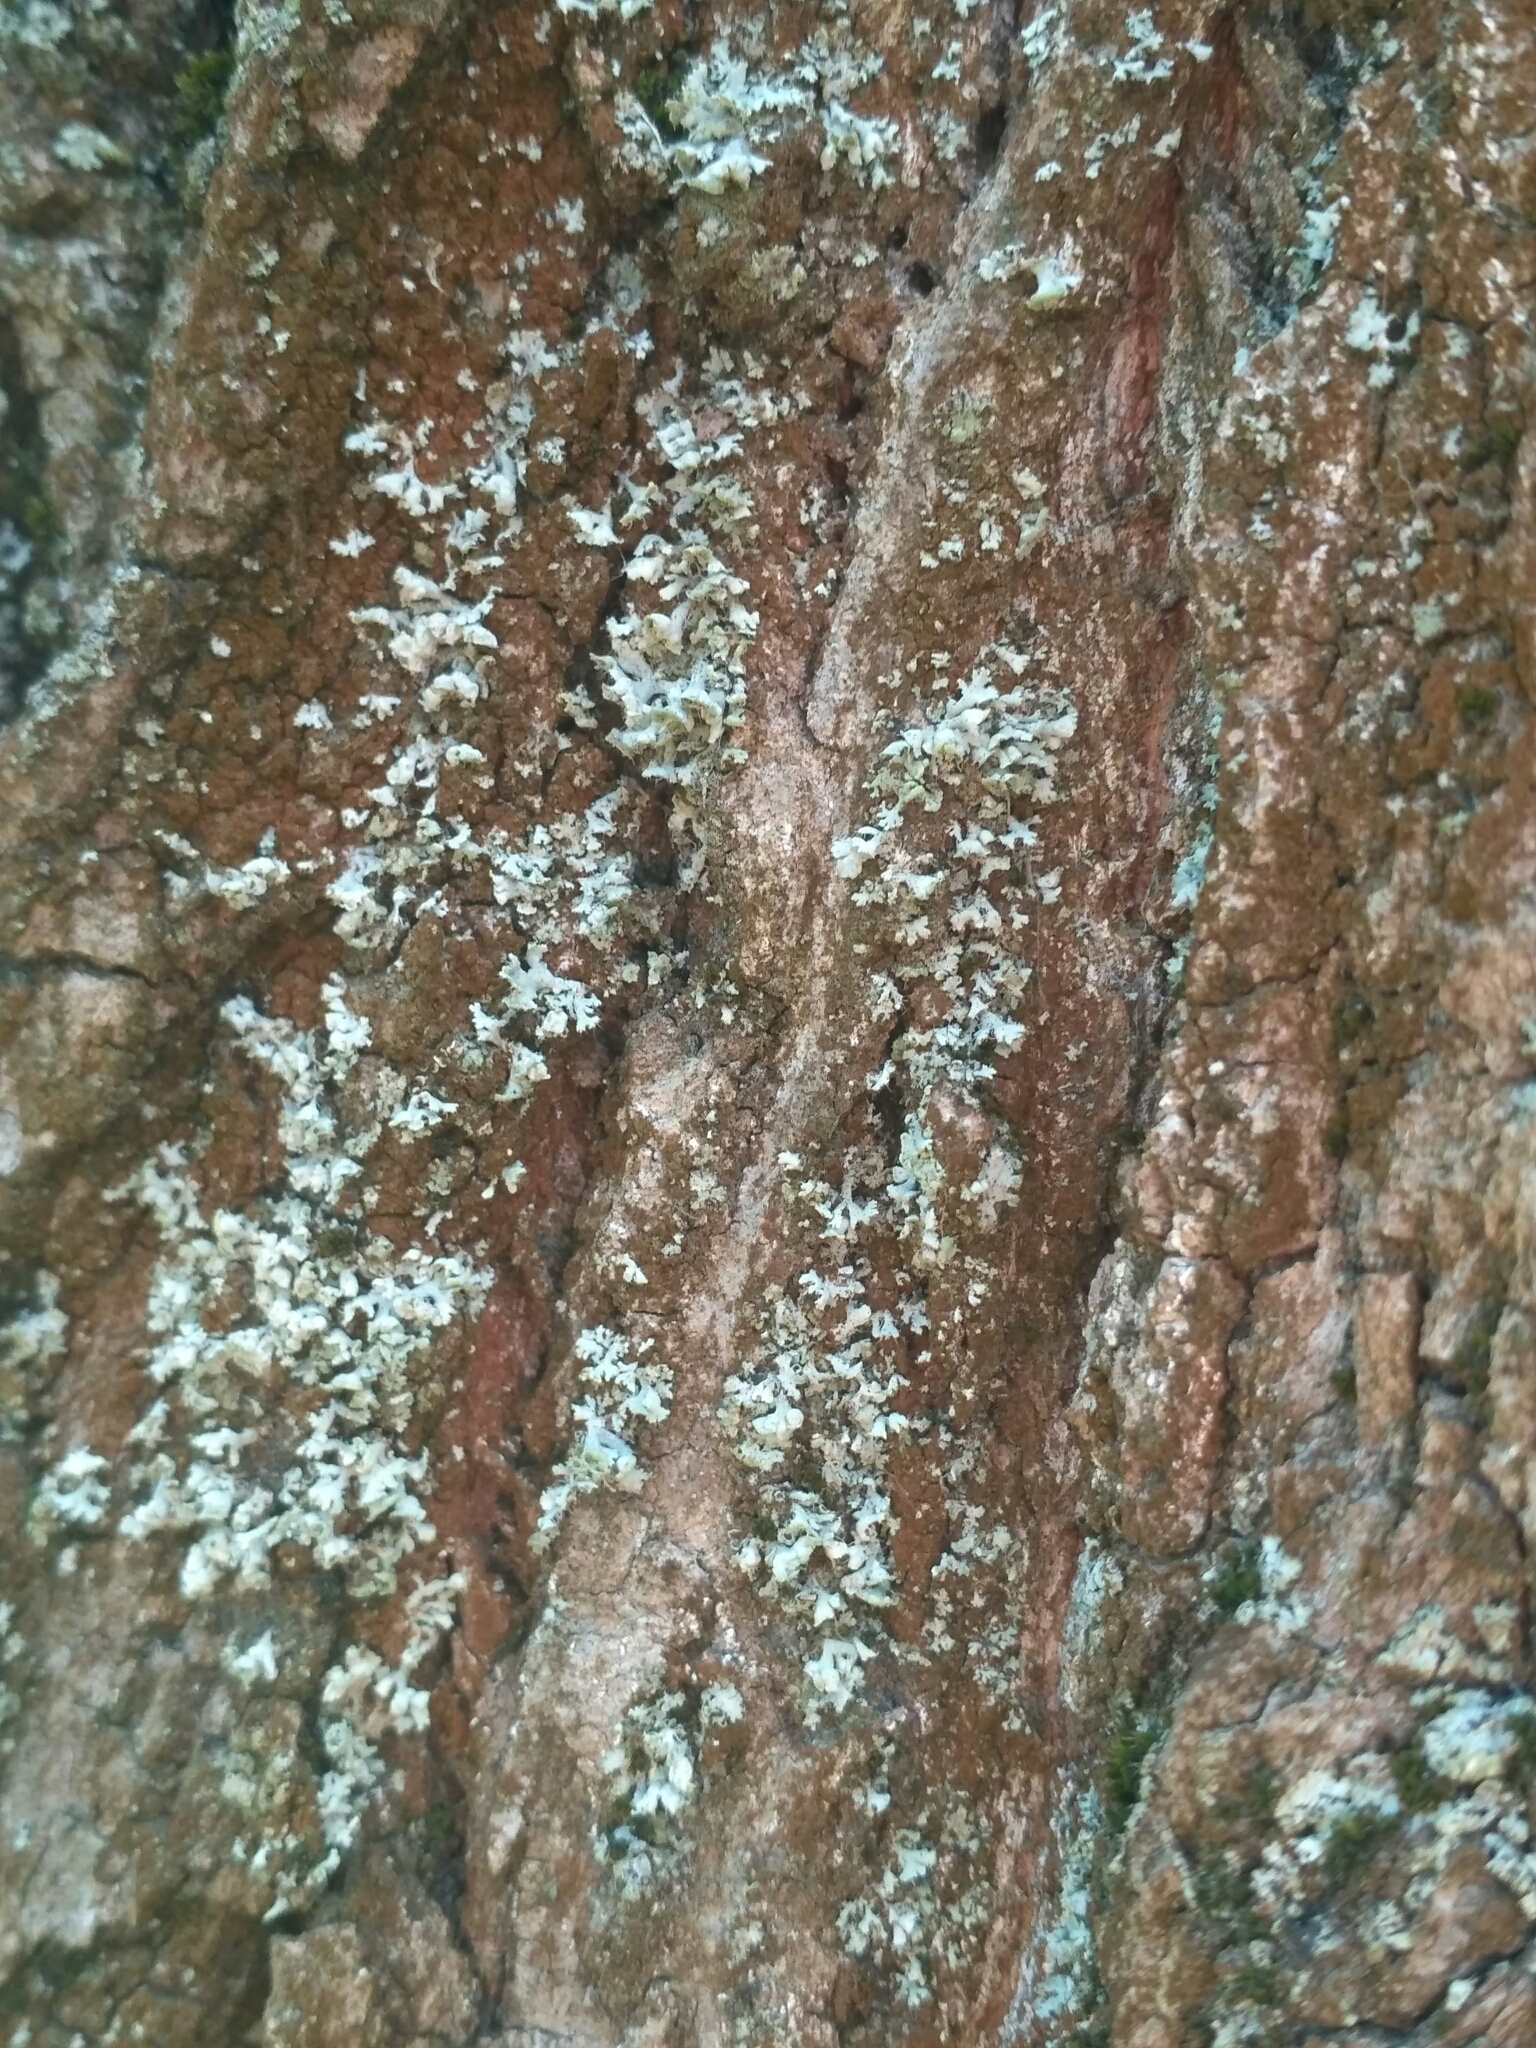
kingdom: Fungi
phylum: Ascomycota
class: Lecanoromycetes
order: Caliciales
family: Physciaceae
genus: Physcia
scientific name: Physcia adscendens
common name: Hooded rosette lichen
